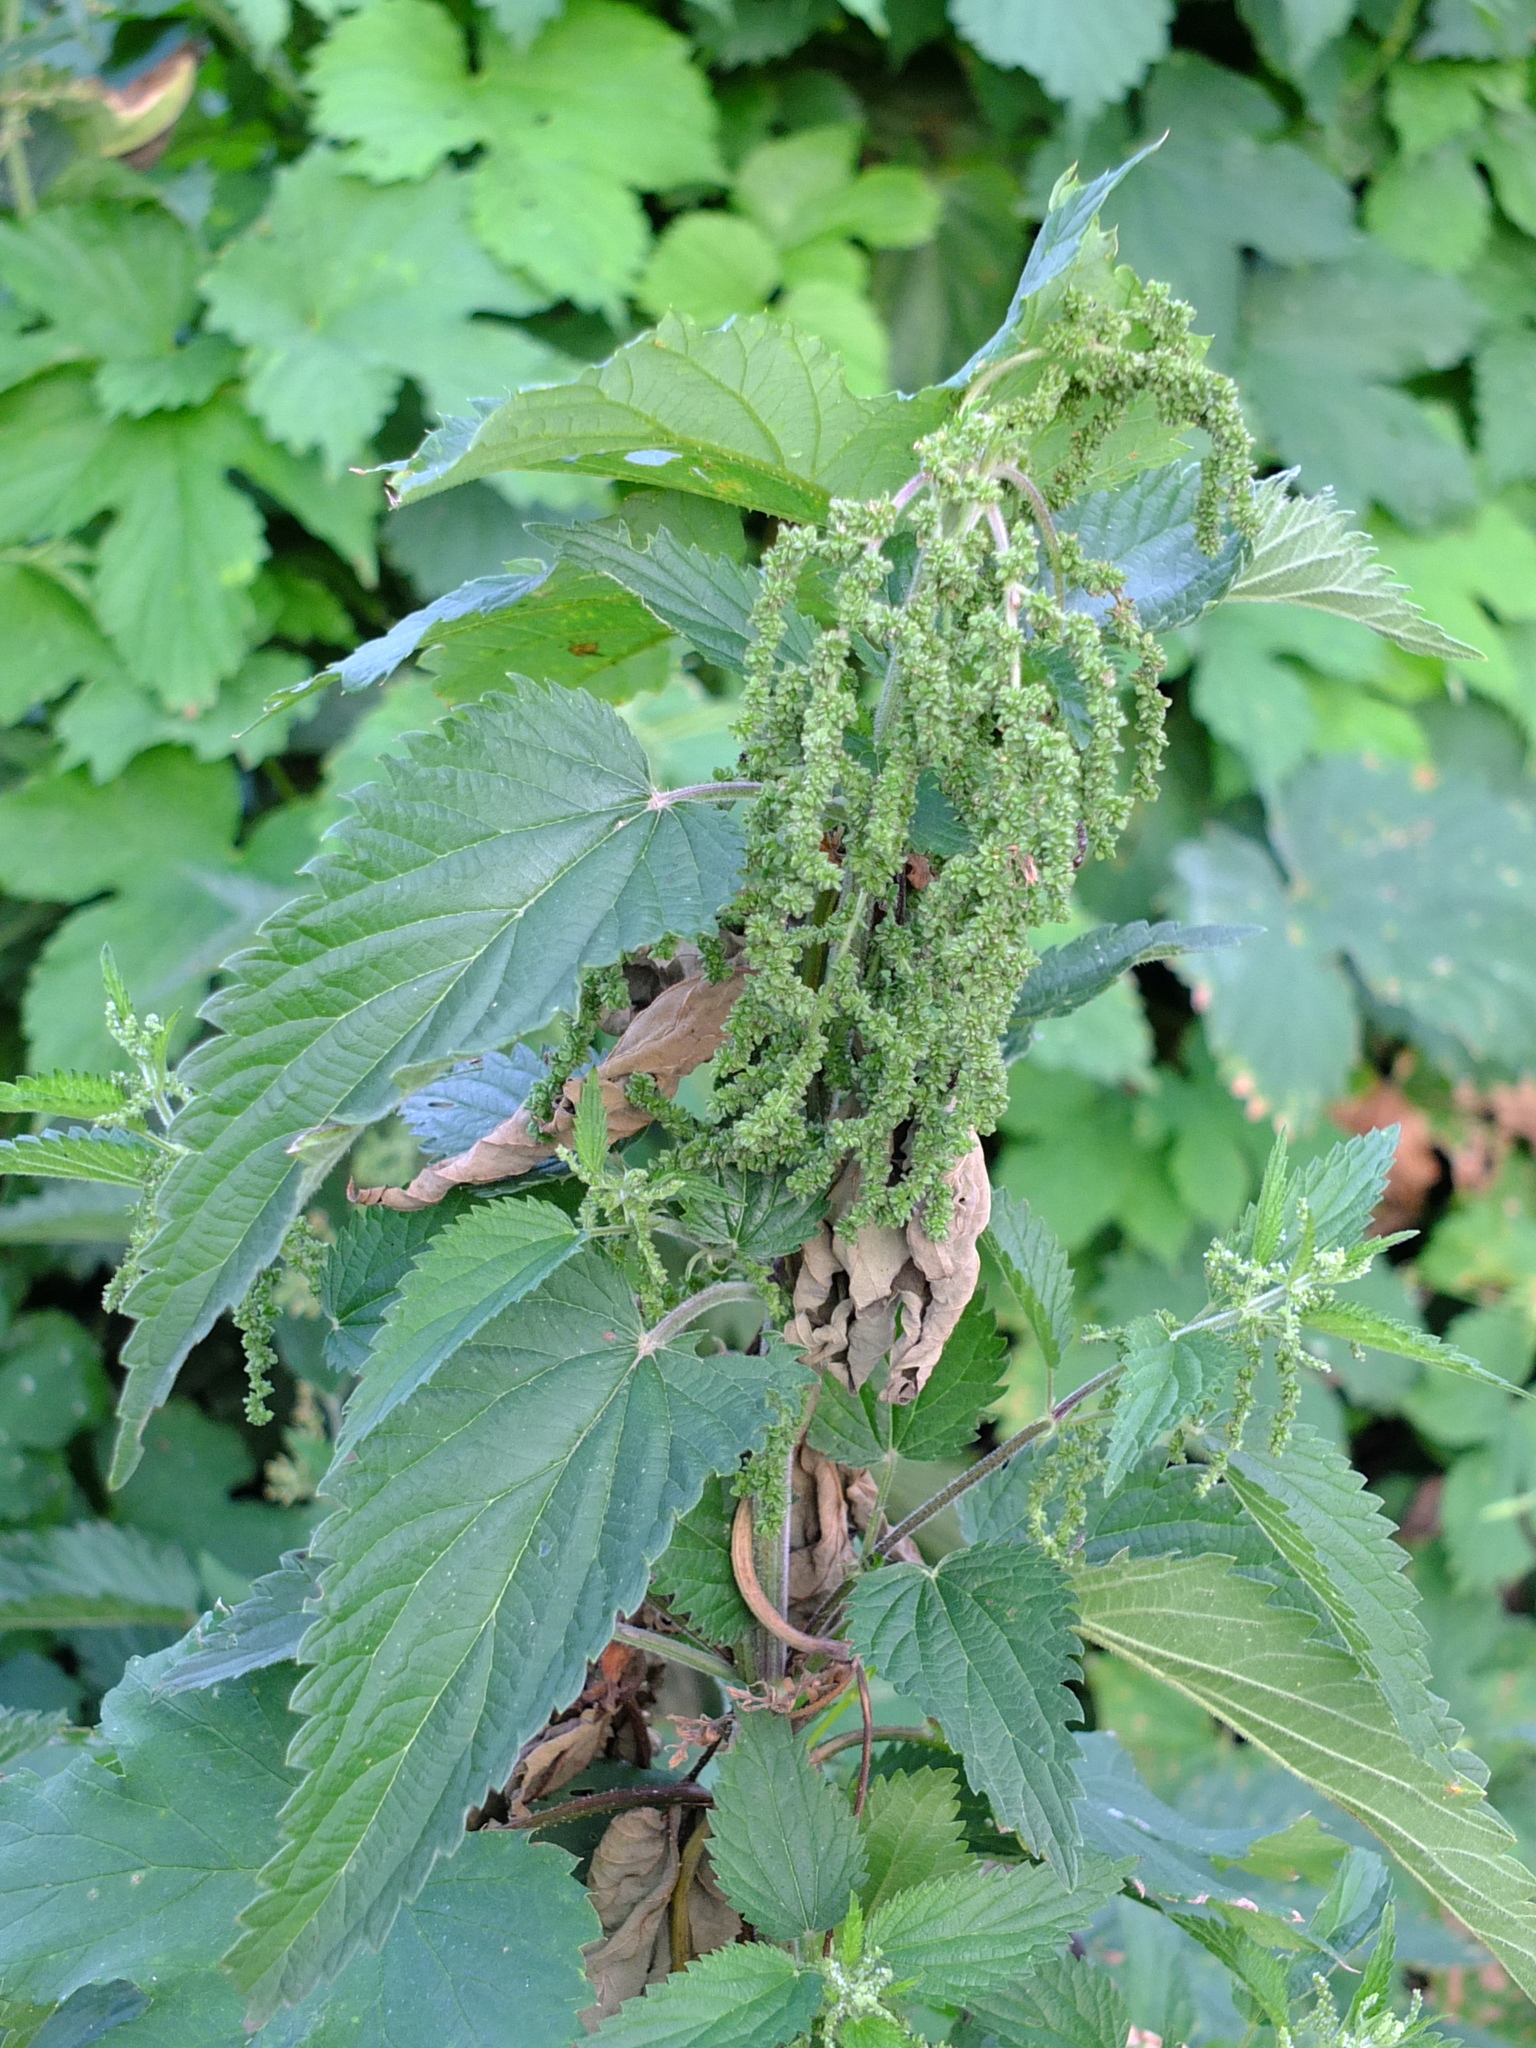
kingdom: Plantae
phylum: Tracheophyta
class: Magnoliopsida
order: Rosales
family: Urticaceae
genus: Urtica
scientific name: Urtica dioica
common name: Common nettle
